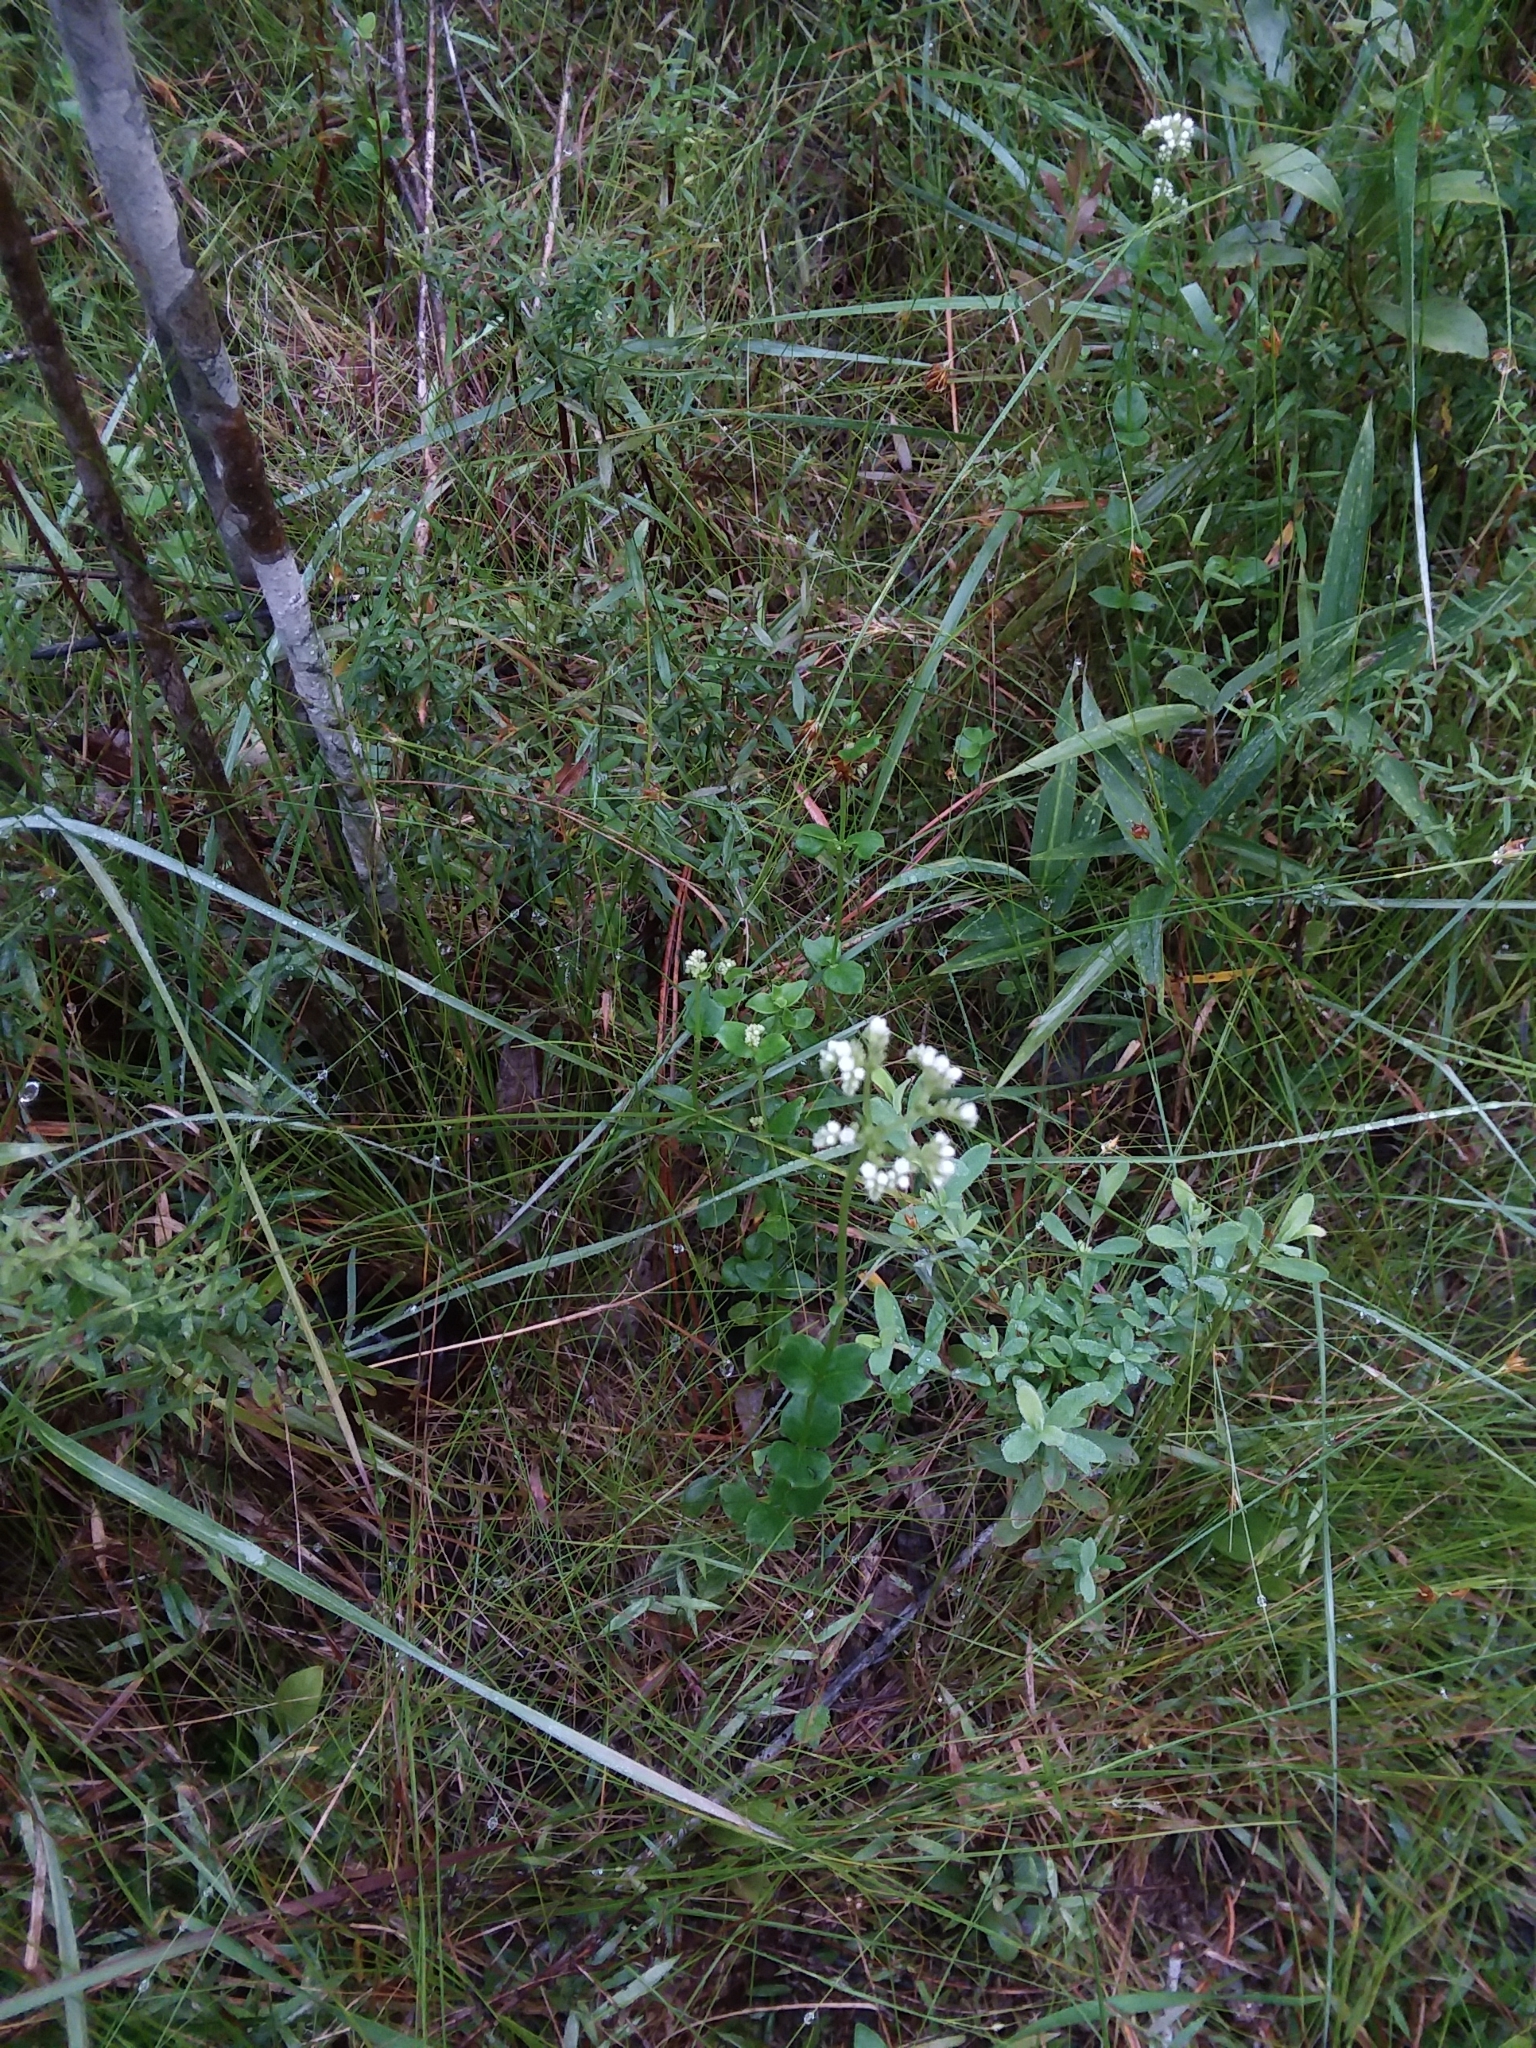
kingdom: Plantae
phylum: Tracheophyta
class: Magnoliopsida
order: Gentianales
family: Loganiaceae
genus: Mitreola
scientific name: Mitreola sessilifolia
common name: Swamp hornpod
